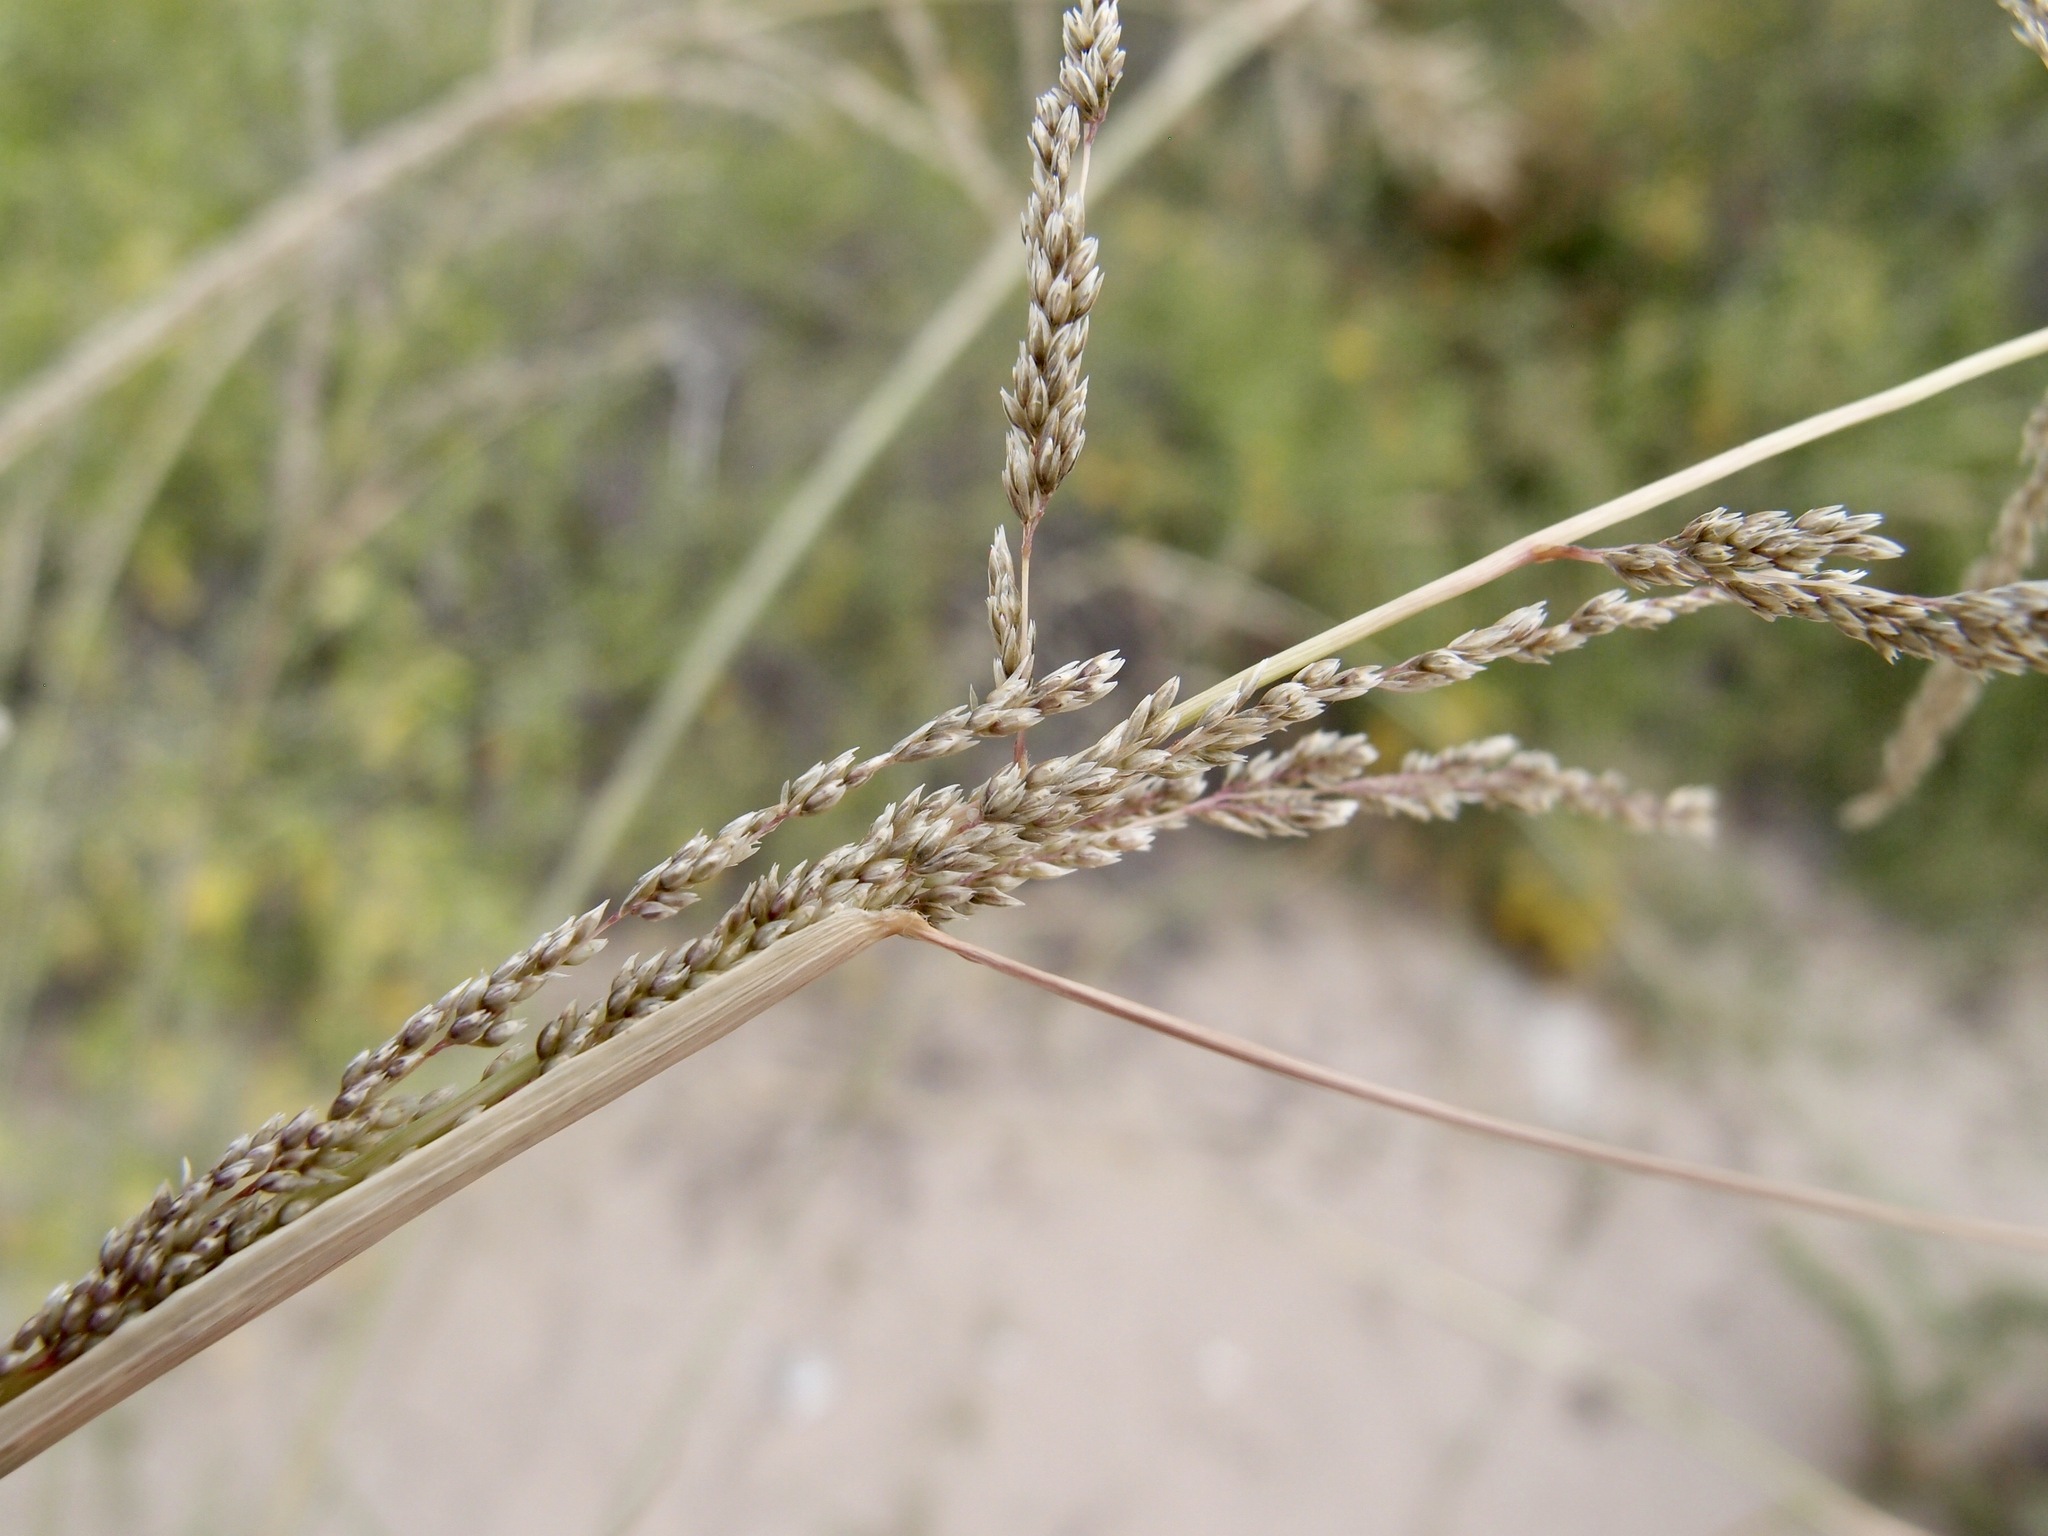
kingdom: Plantae
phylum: Tracheophyta
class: Liliopsida
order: Poales
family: Poaceae
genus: Sporobolus
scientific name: Sporobolus cryptandrus
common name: Sand dropseed
